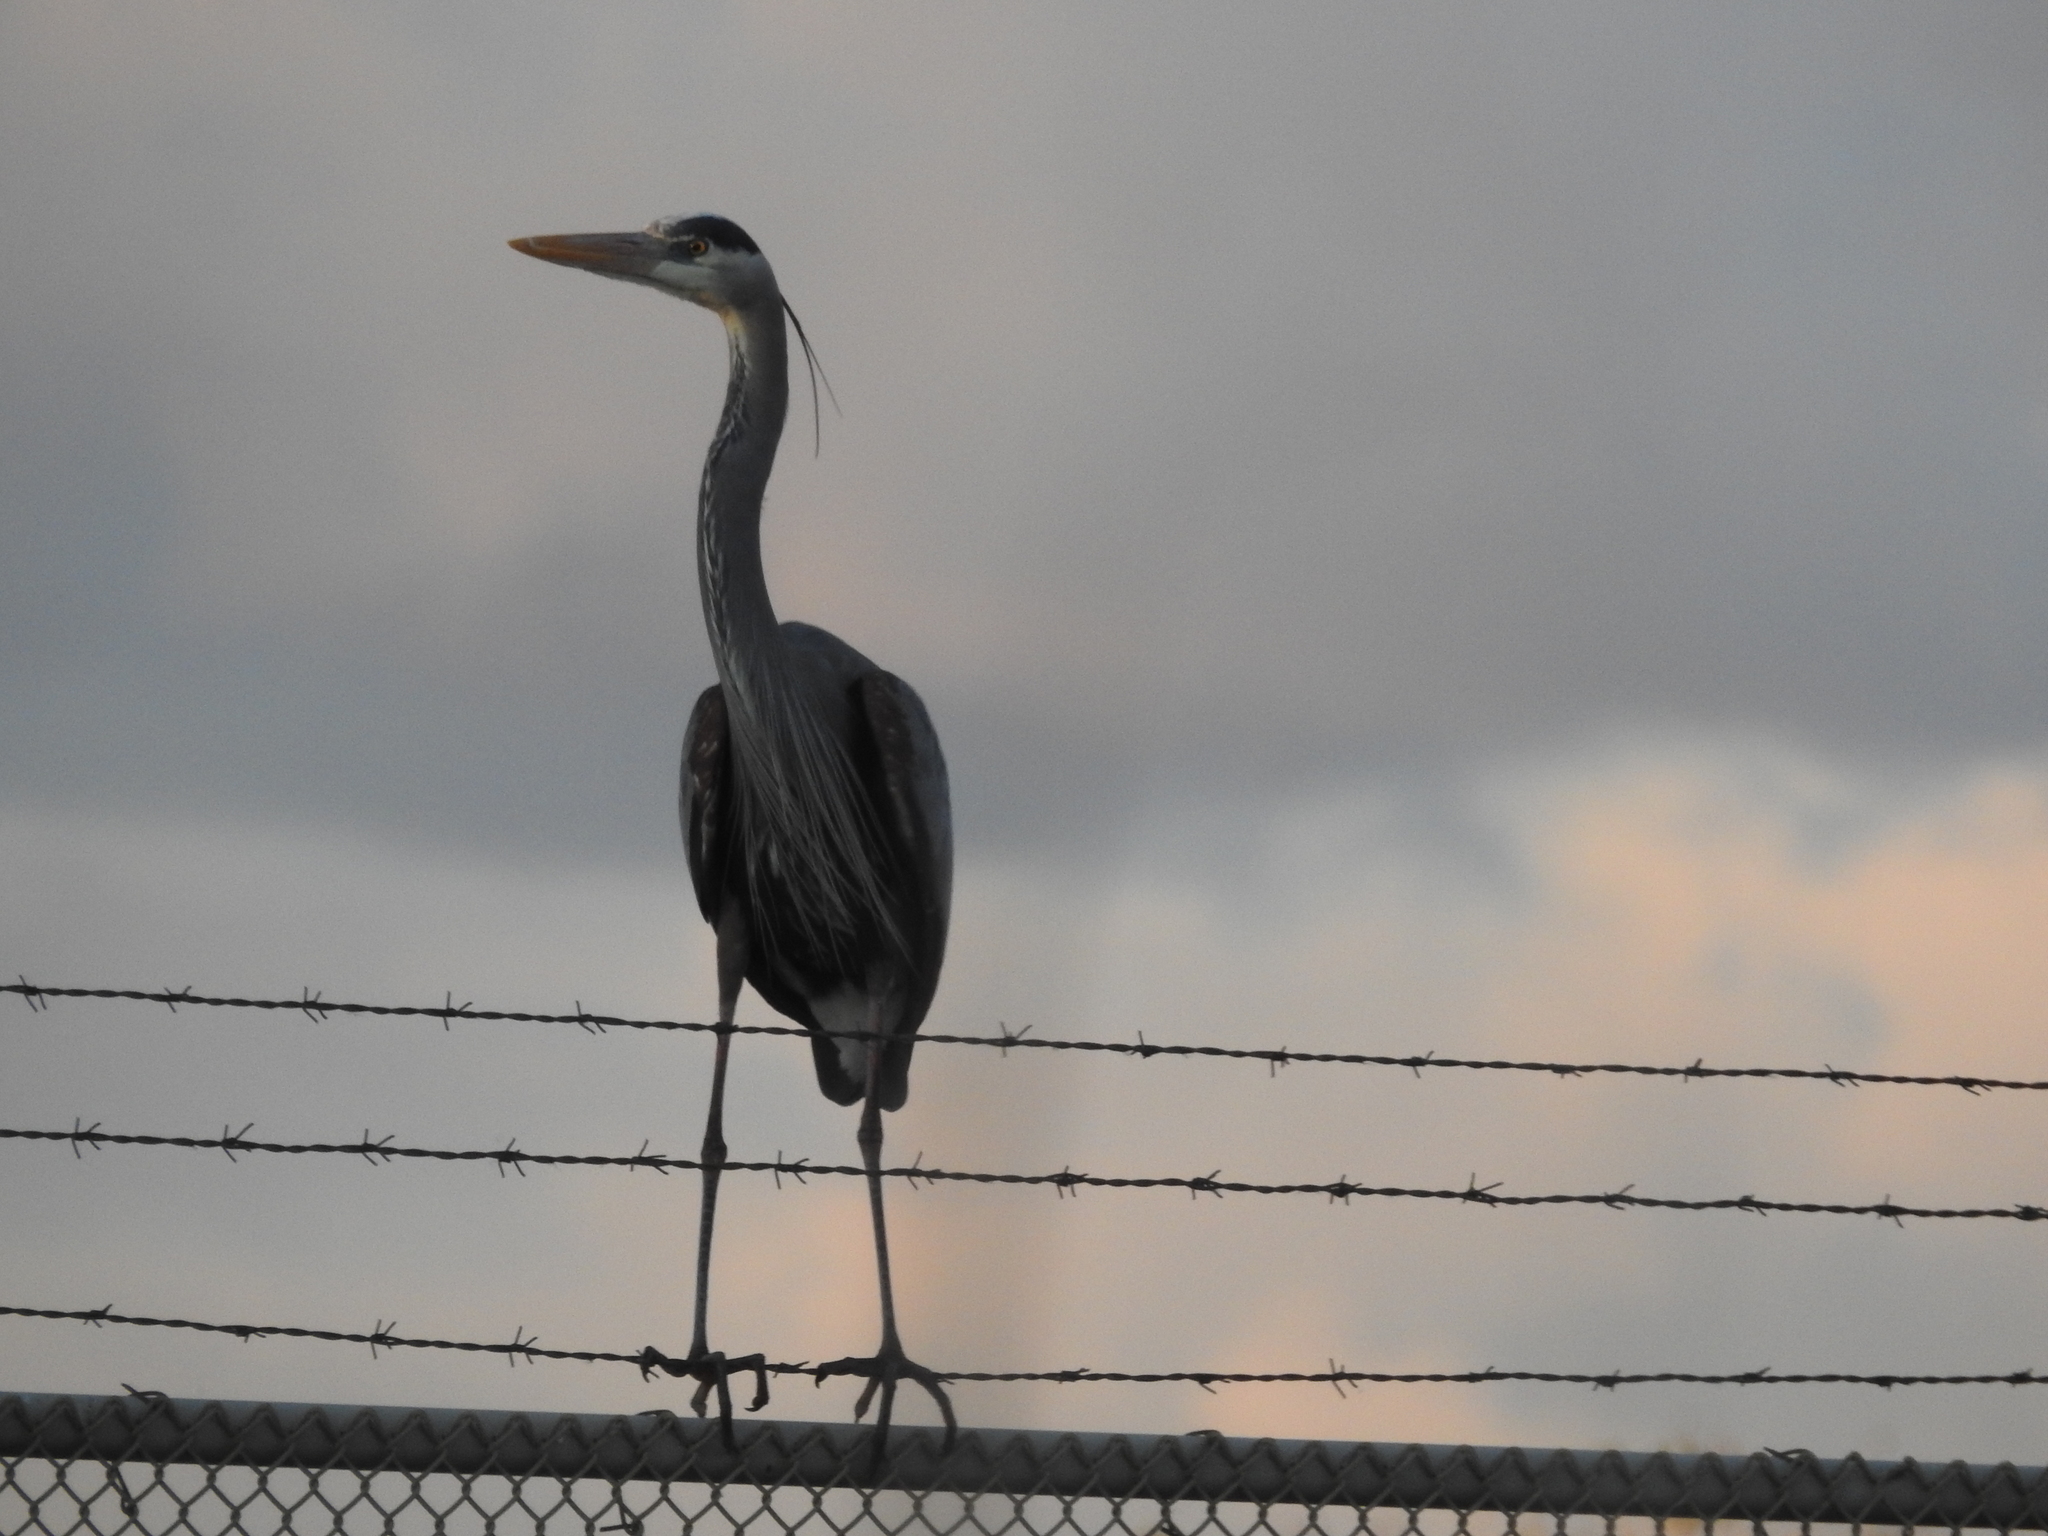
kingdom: Animalia
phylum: Chordata
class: Aves
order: Pelecaniformes
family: Ardeidae
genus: Ardea
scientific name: Ardea herodias
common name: Great blue heron
